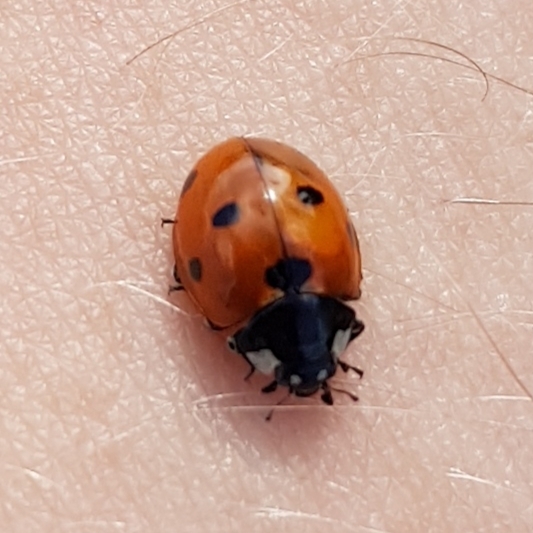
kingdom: Animalia
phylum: Arthropoda
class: Insecta
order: Coleoptera
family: Coccinellidae
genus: Coccinella
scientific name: Coccinella septempunctata
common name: Sevenspotted lady beetle
